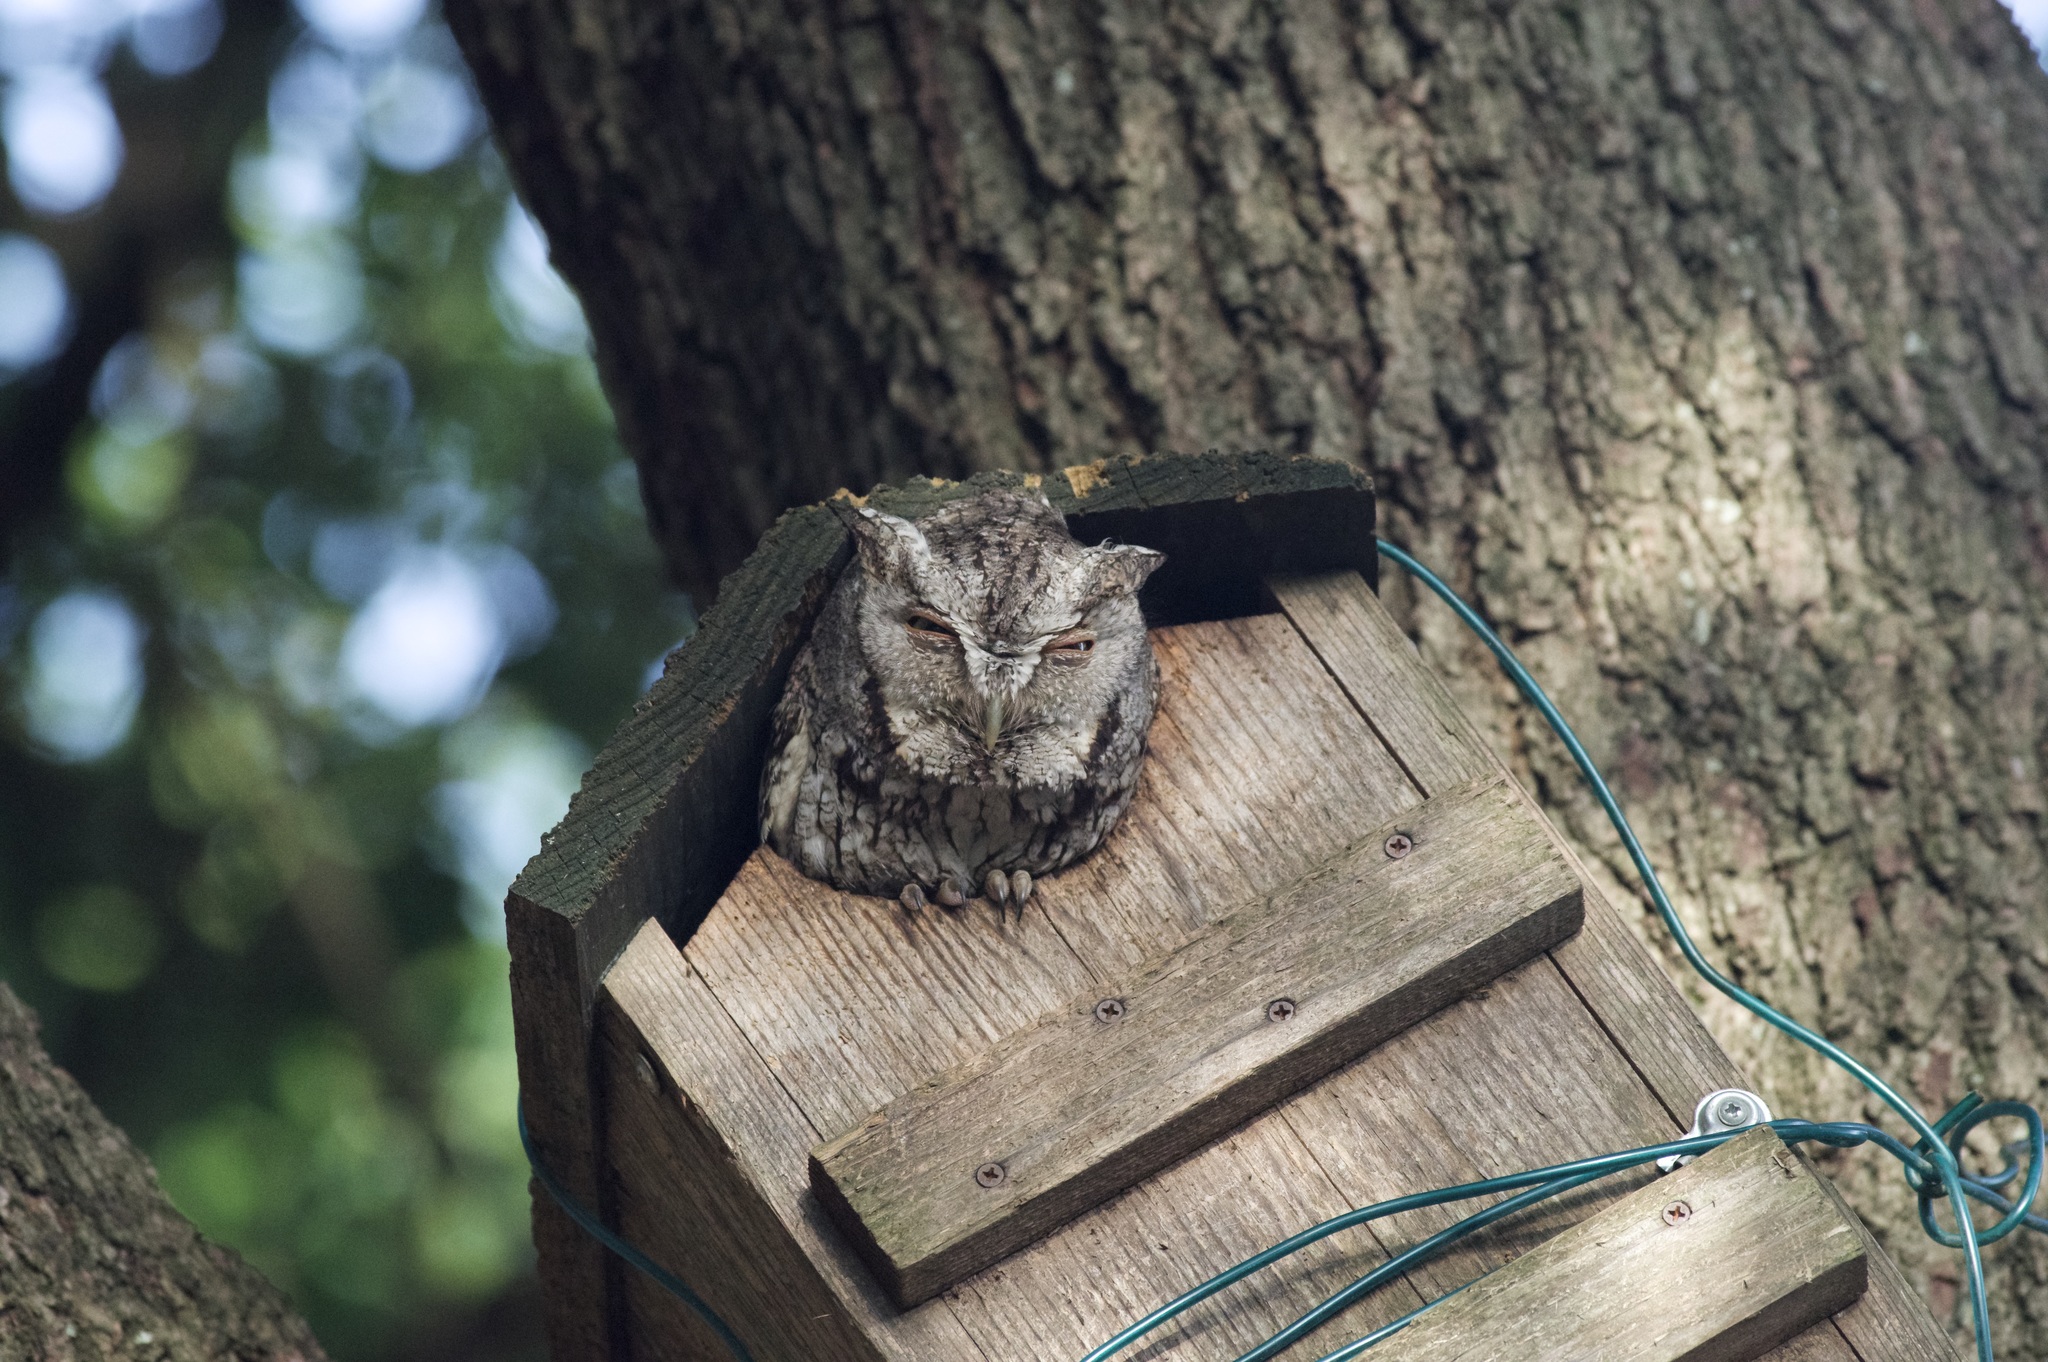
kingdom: Animalia
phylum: Chordata
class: Aves
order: Strigiformes
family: Strigidae
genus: Megascops
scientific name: Megascops asio
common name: Eastern screech-owl
